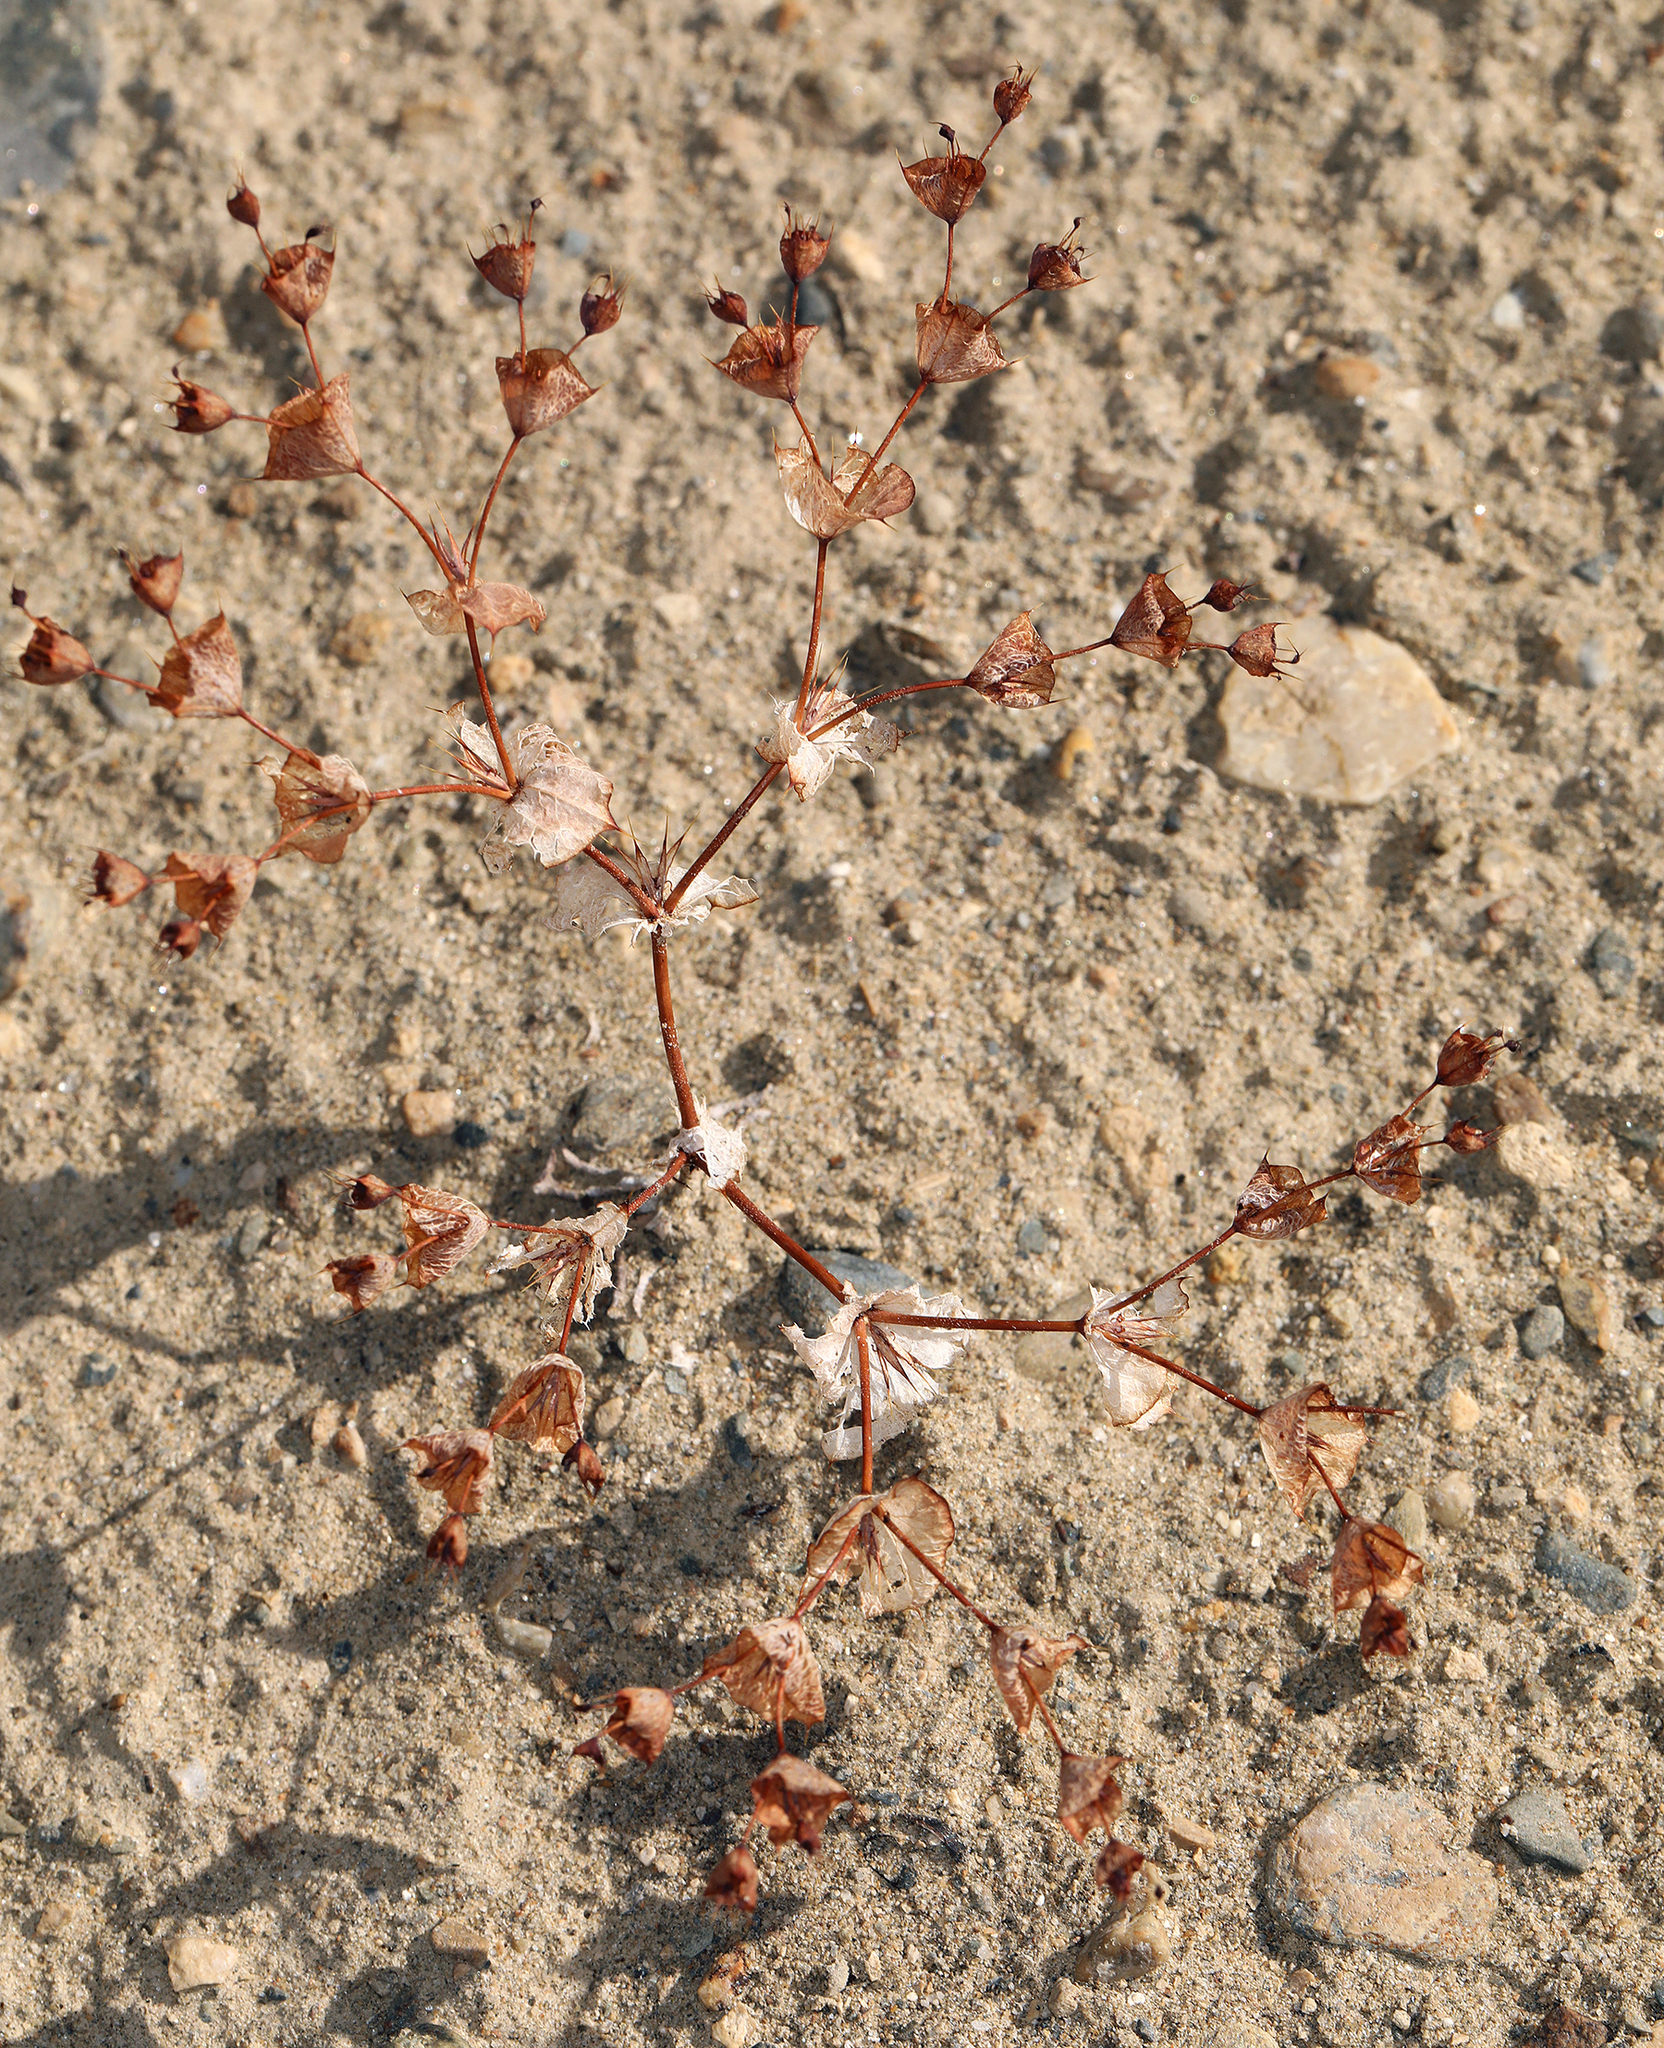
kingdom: Plantae
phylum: Tracheophyta
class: Magnoliopsida
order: Caryophyllales
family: Polygonaceae
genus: Oxytheca
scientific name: Oxytheca perfoliata
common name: Round-leaf puncturebract
